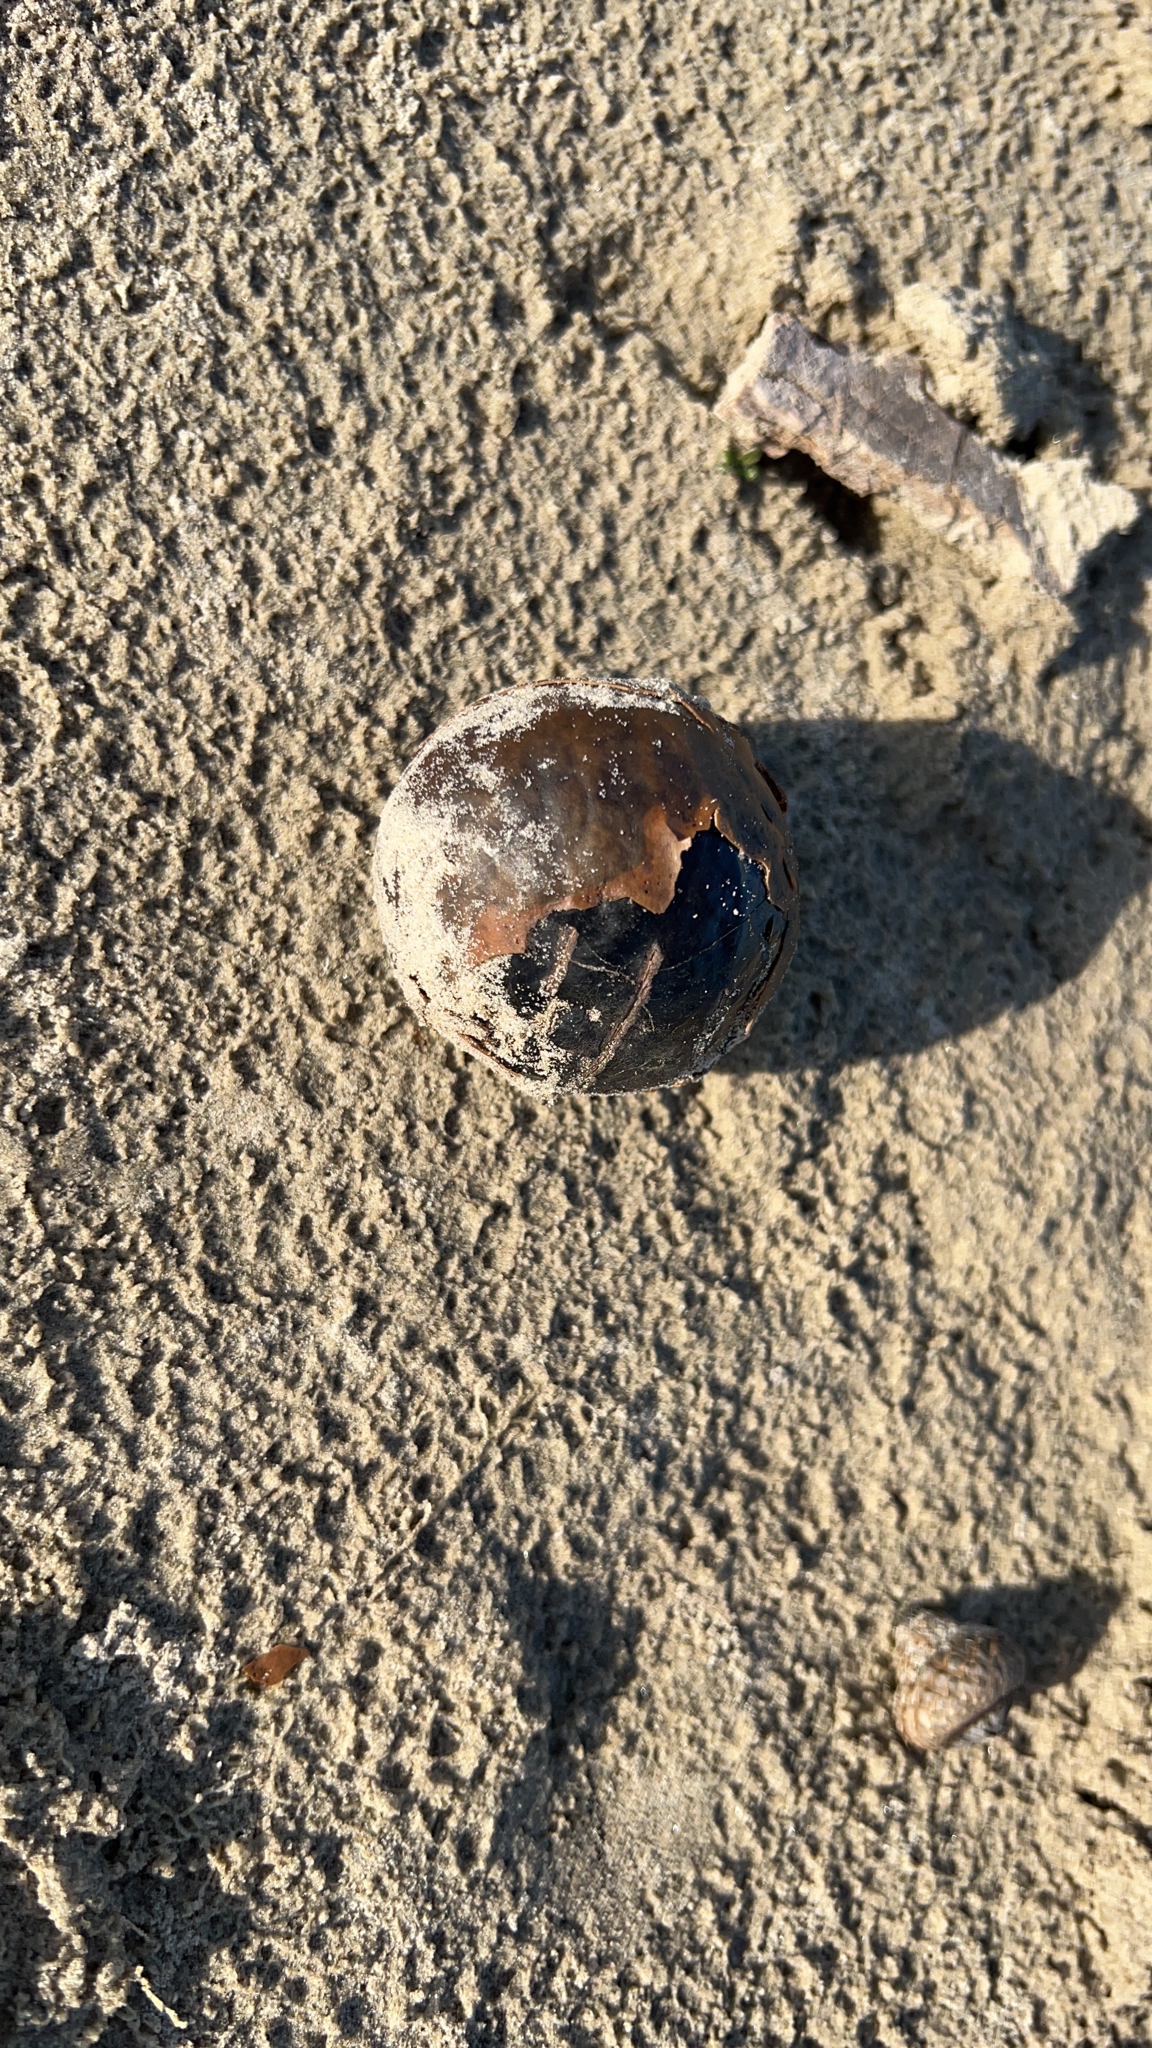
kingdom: Plantae
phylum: Tracheophyta
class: Liliopsida
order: Arecales
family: Arecaceae
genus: Manicaria
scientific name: Manicaria saccifera
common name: Sea coconut
